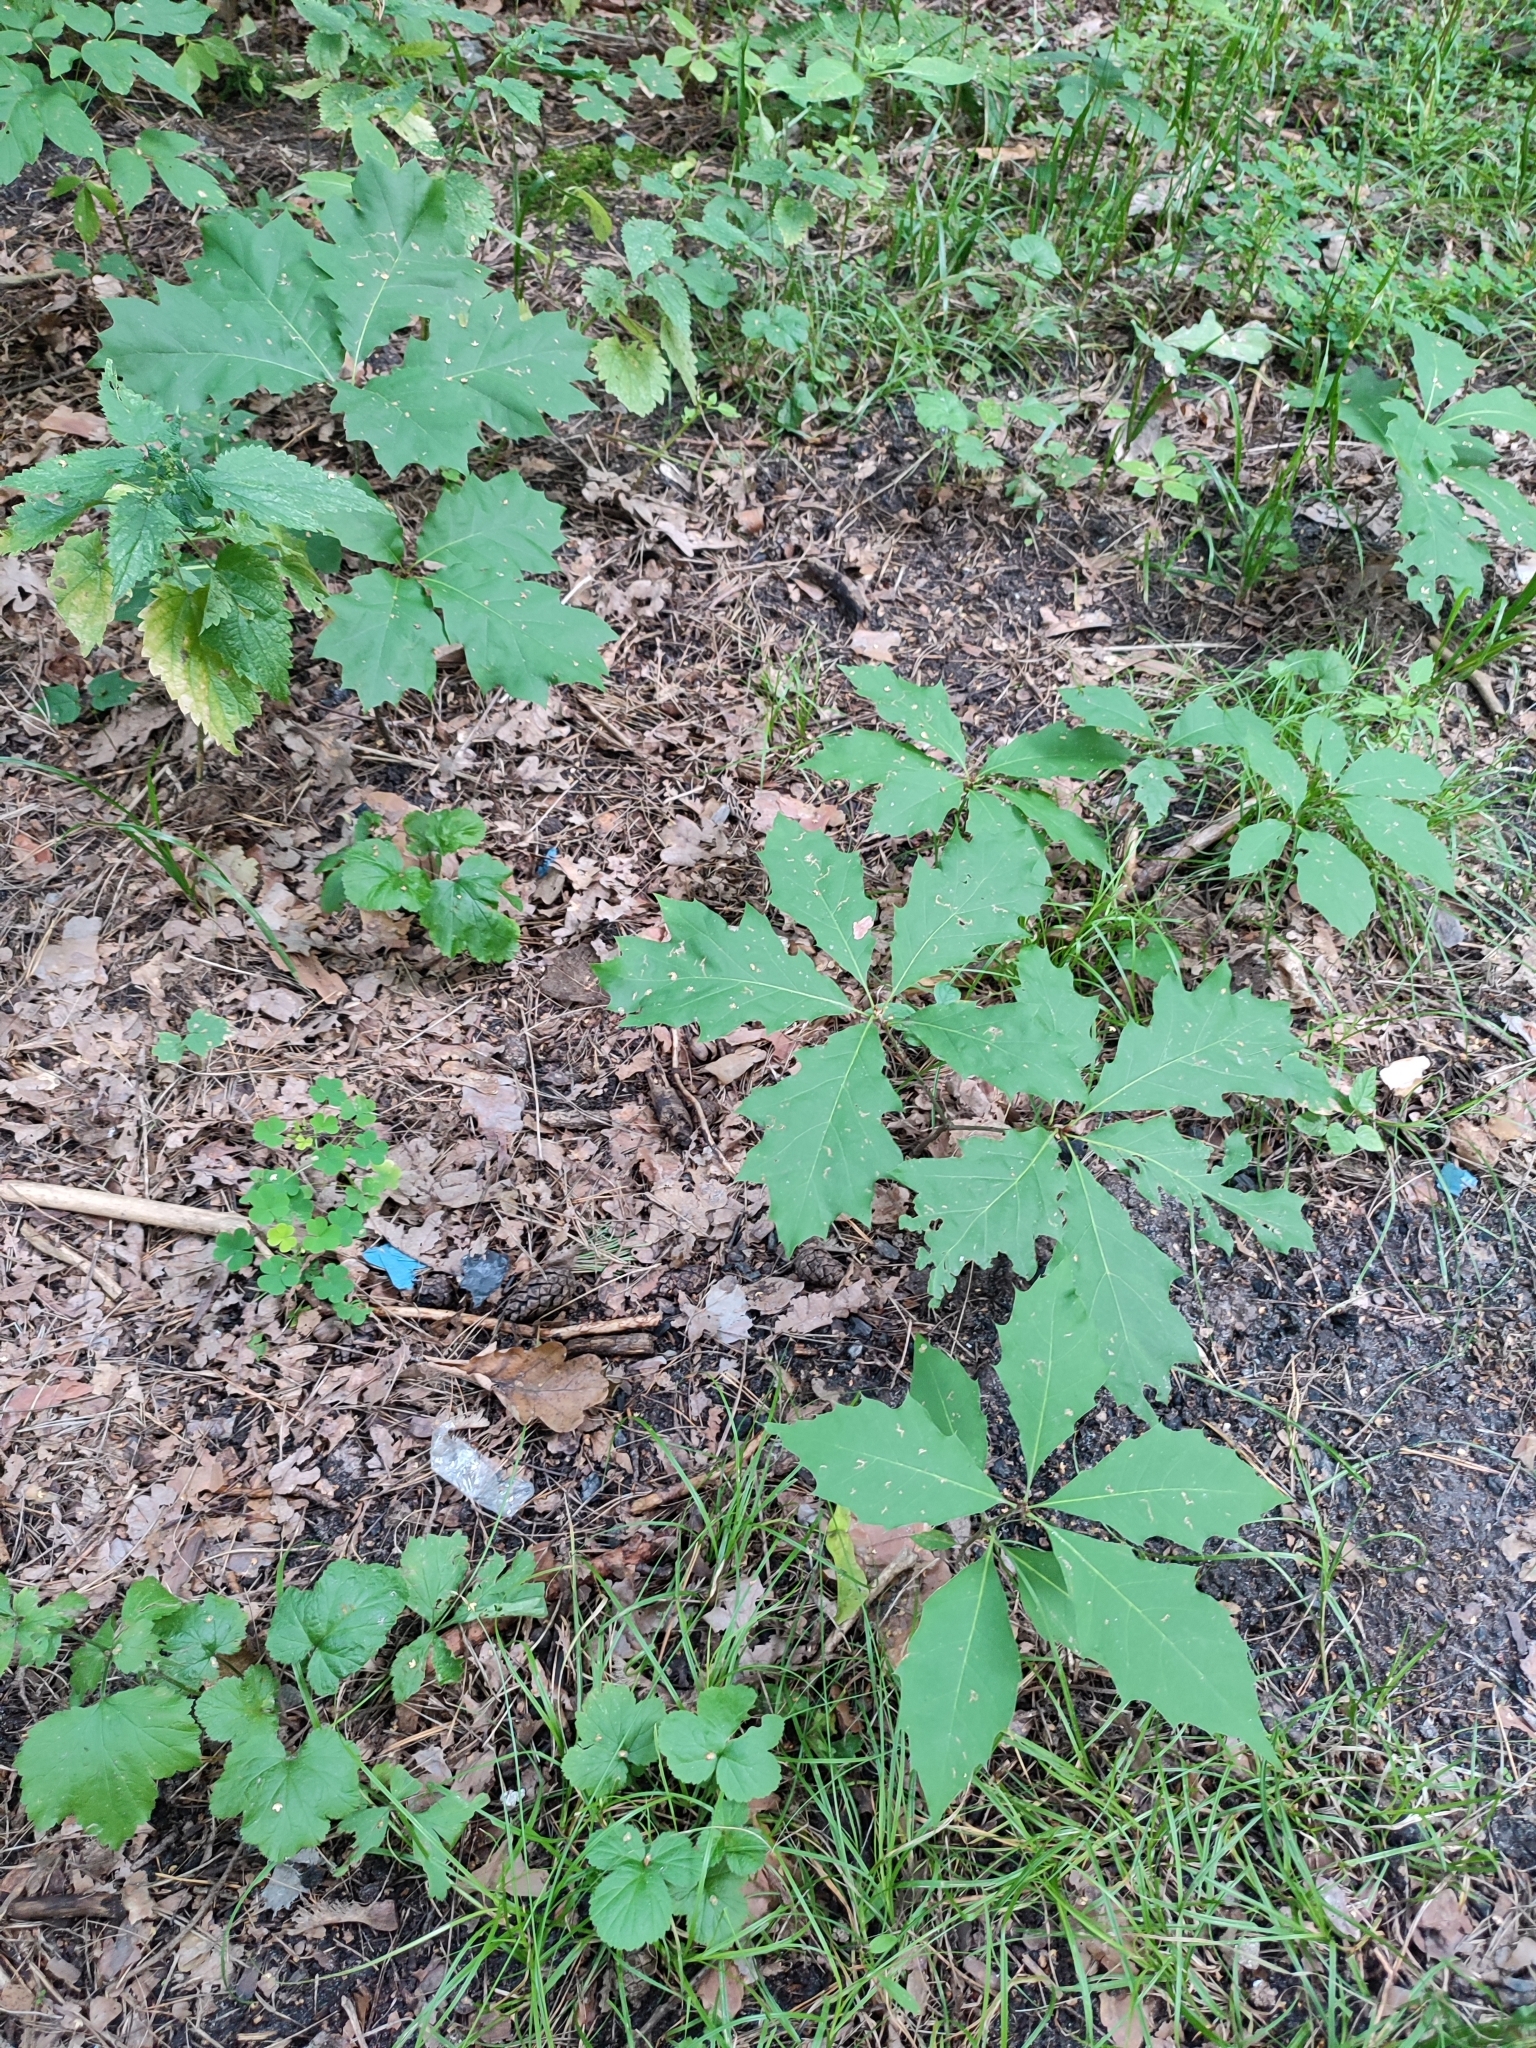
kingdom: Plantae
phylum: Tracheophyta
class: Magnoliopsida
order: Fagales
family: Fagaceae
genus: Quercus
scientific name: Quercus rubra
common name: Red oak
